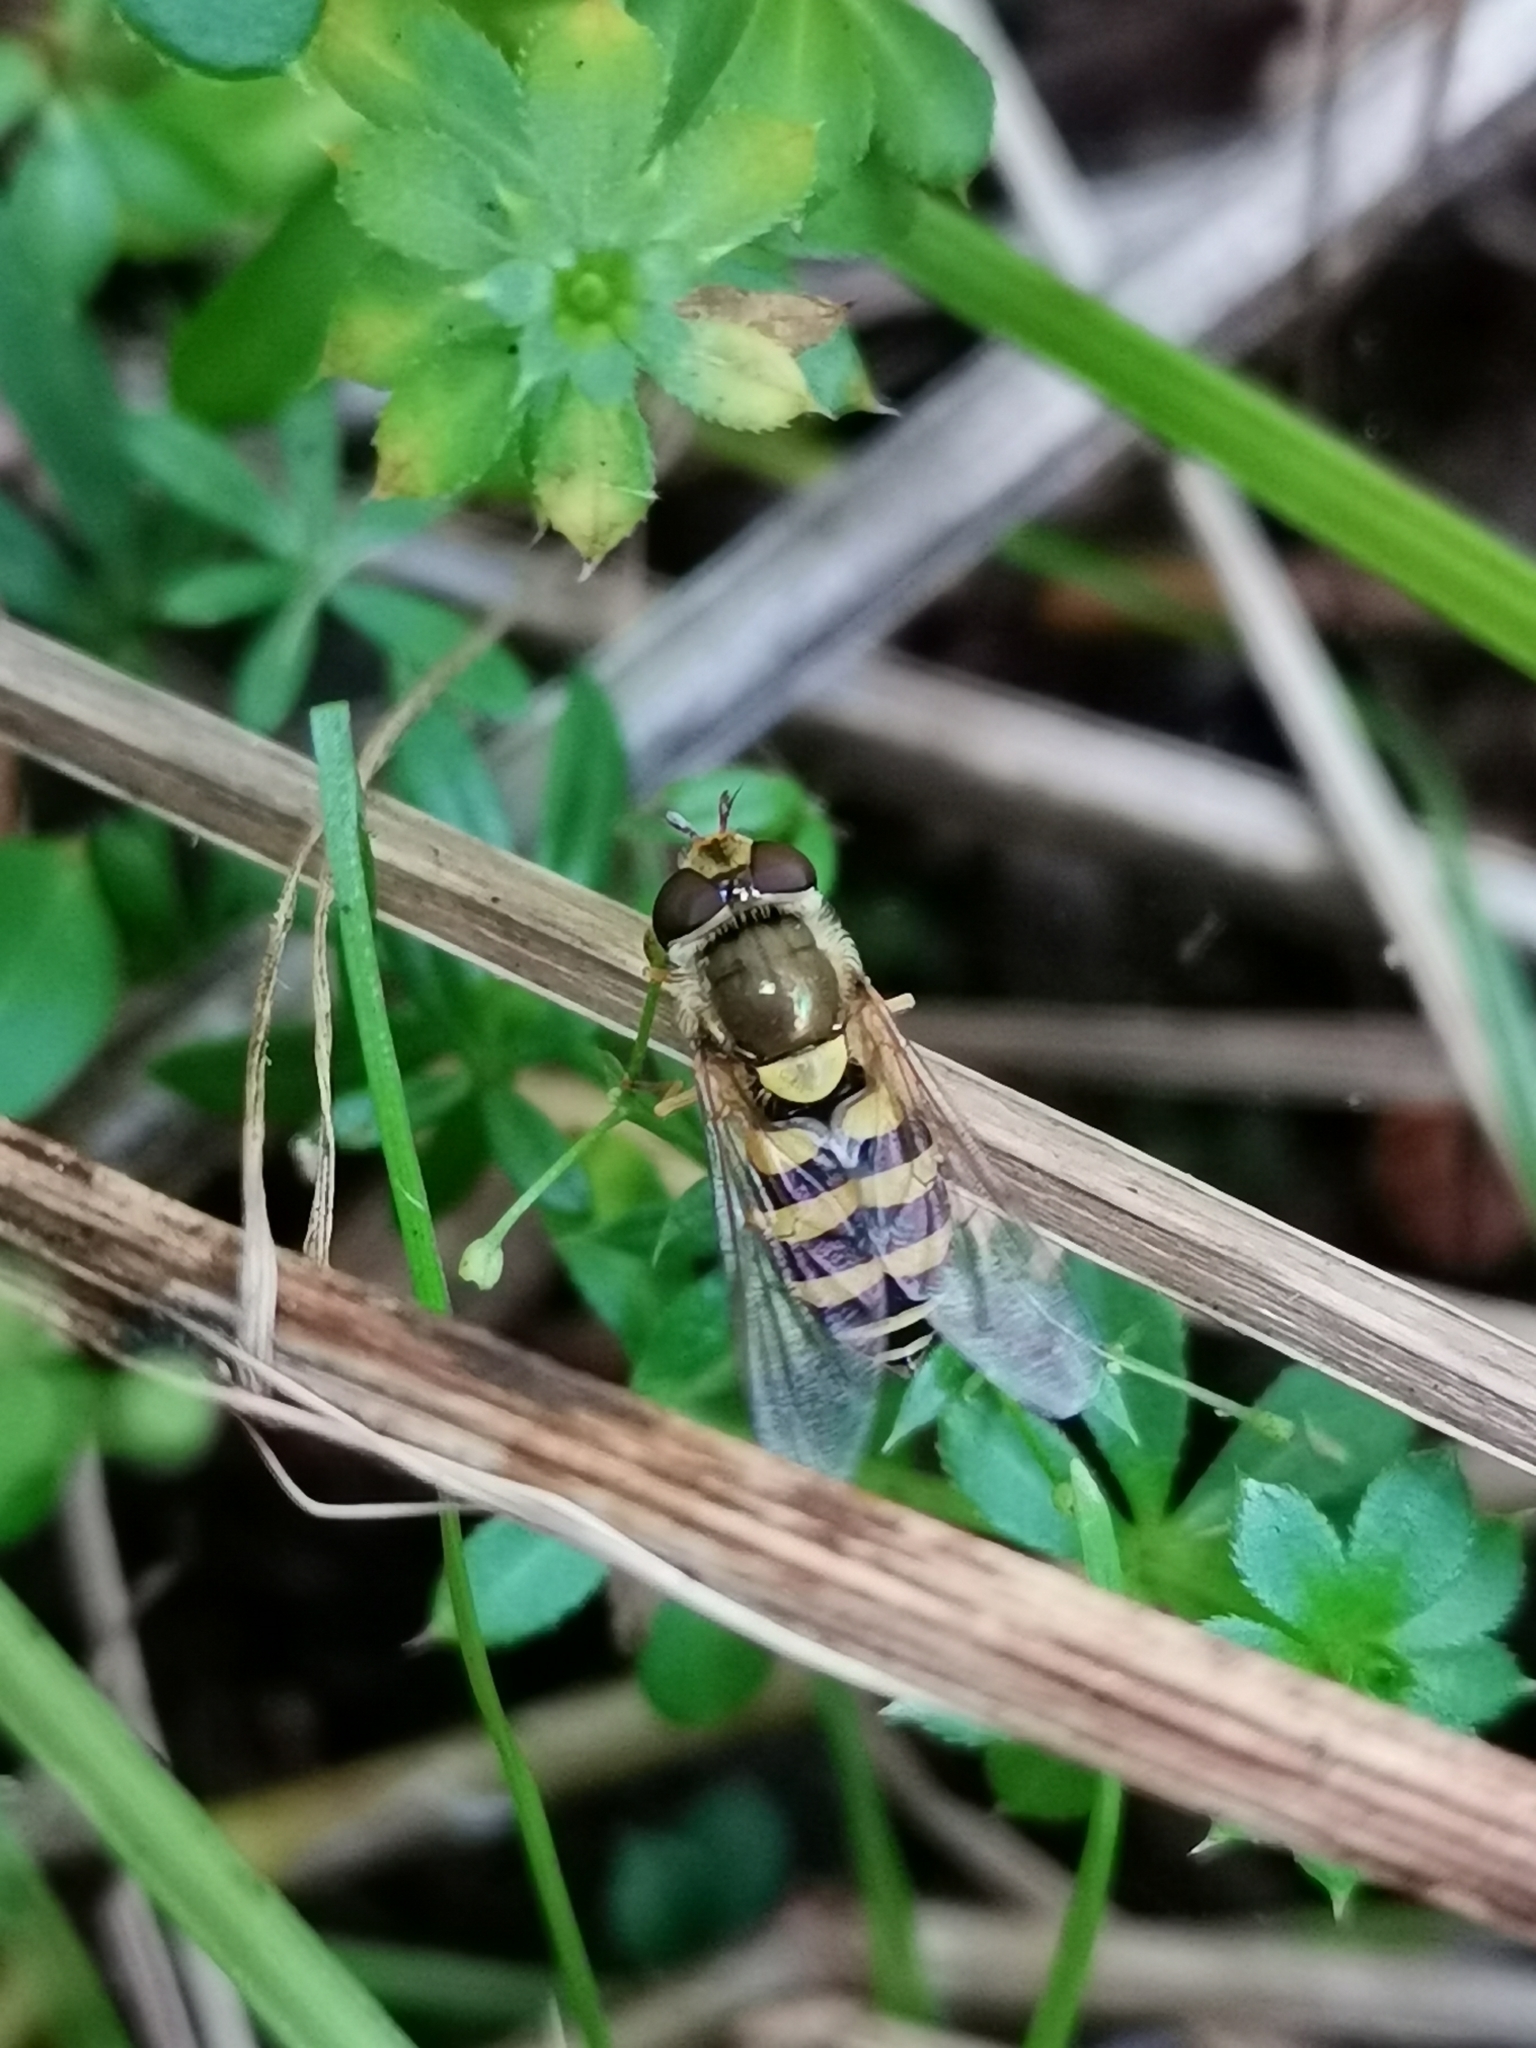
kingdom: Animalia
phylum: Arthropoda
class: Insecta
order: Diptera
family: Syrphidae
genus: Syrphus
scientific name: Syrphus
